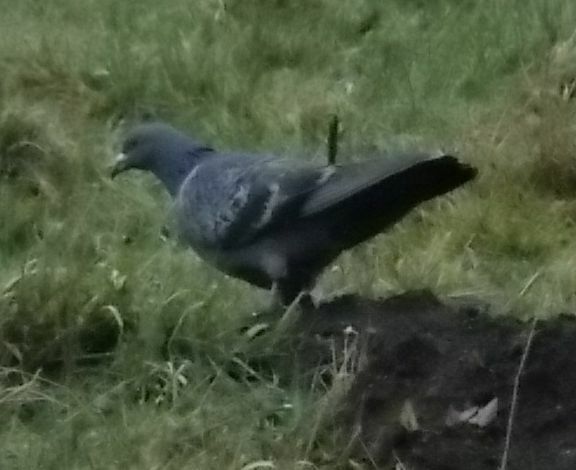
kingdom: Animalia
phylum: Chordata
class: Aves
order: Columbiformes
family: Columbidae
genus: Columba
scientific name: Columba livia
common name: Rock pigeon
